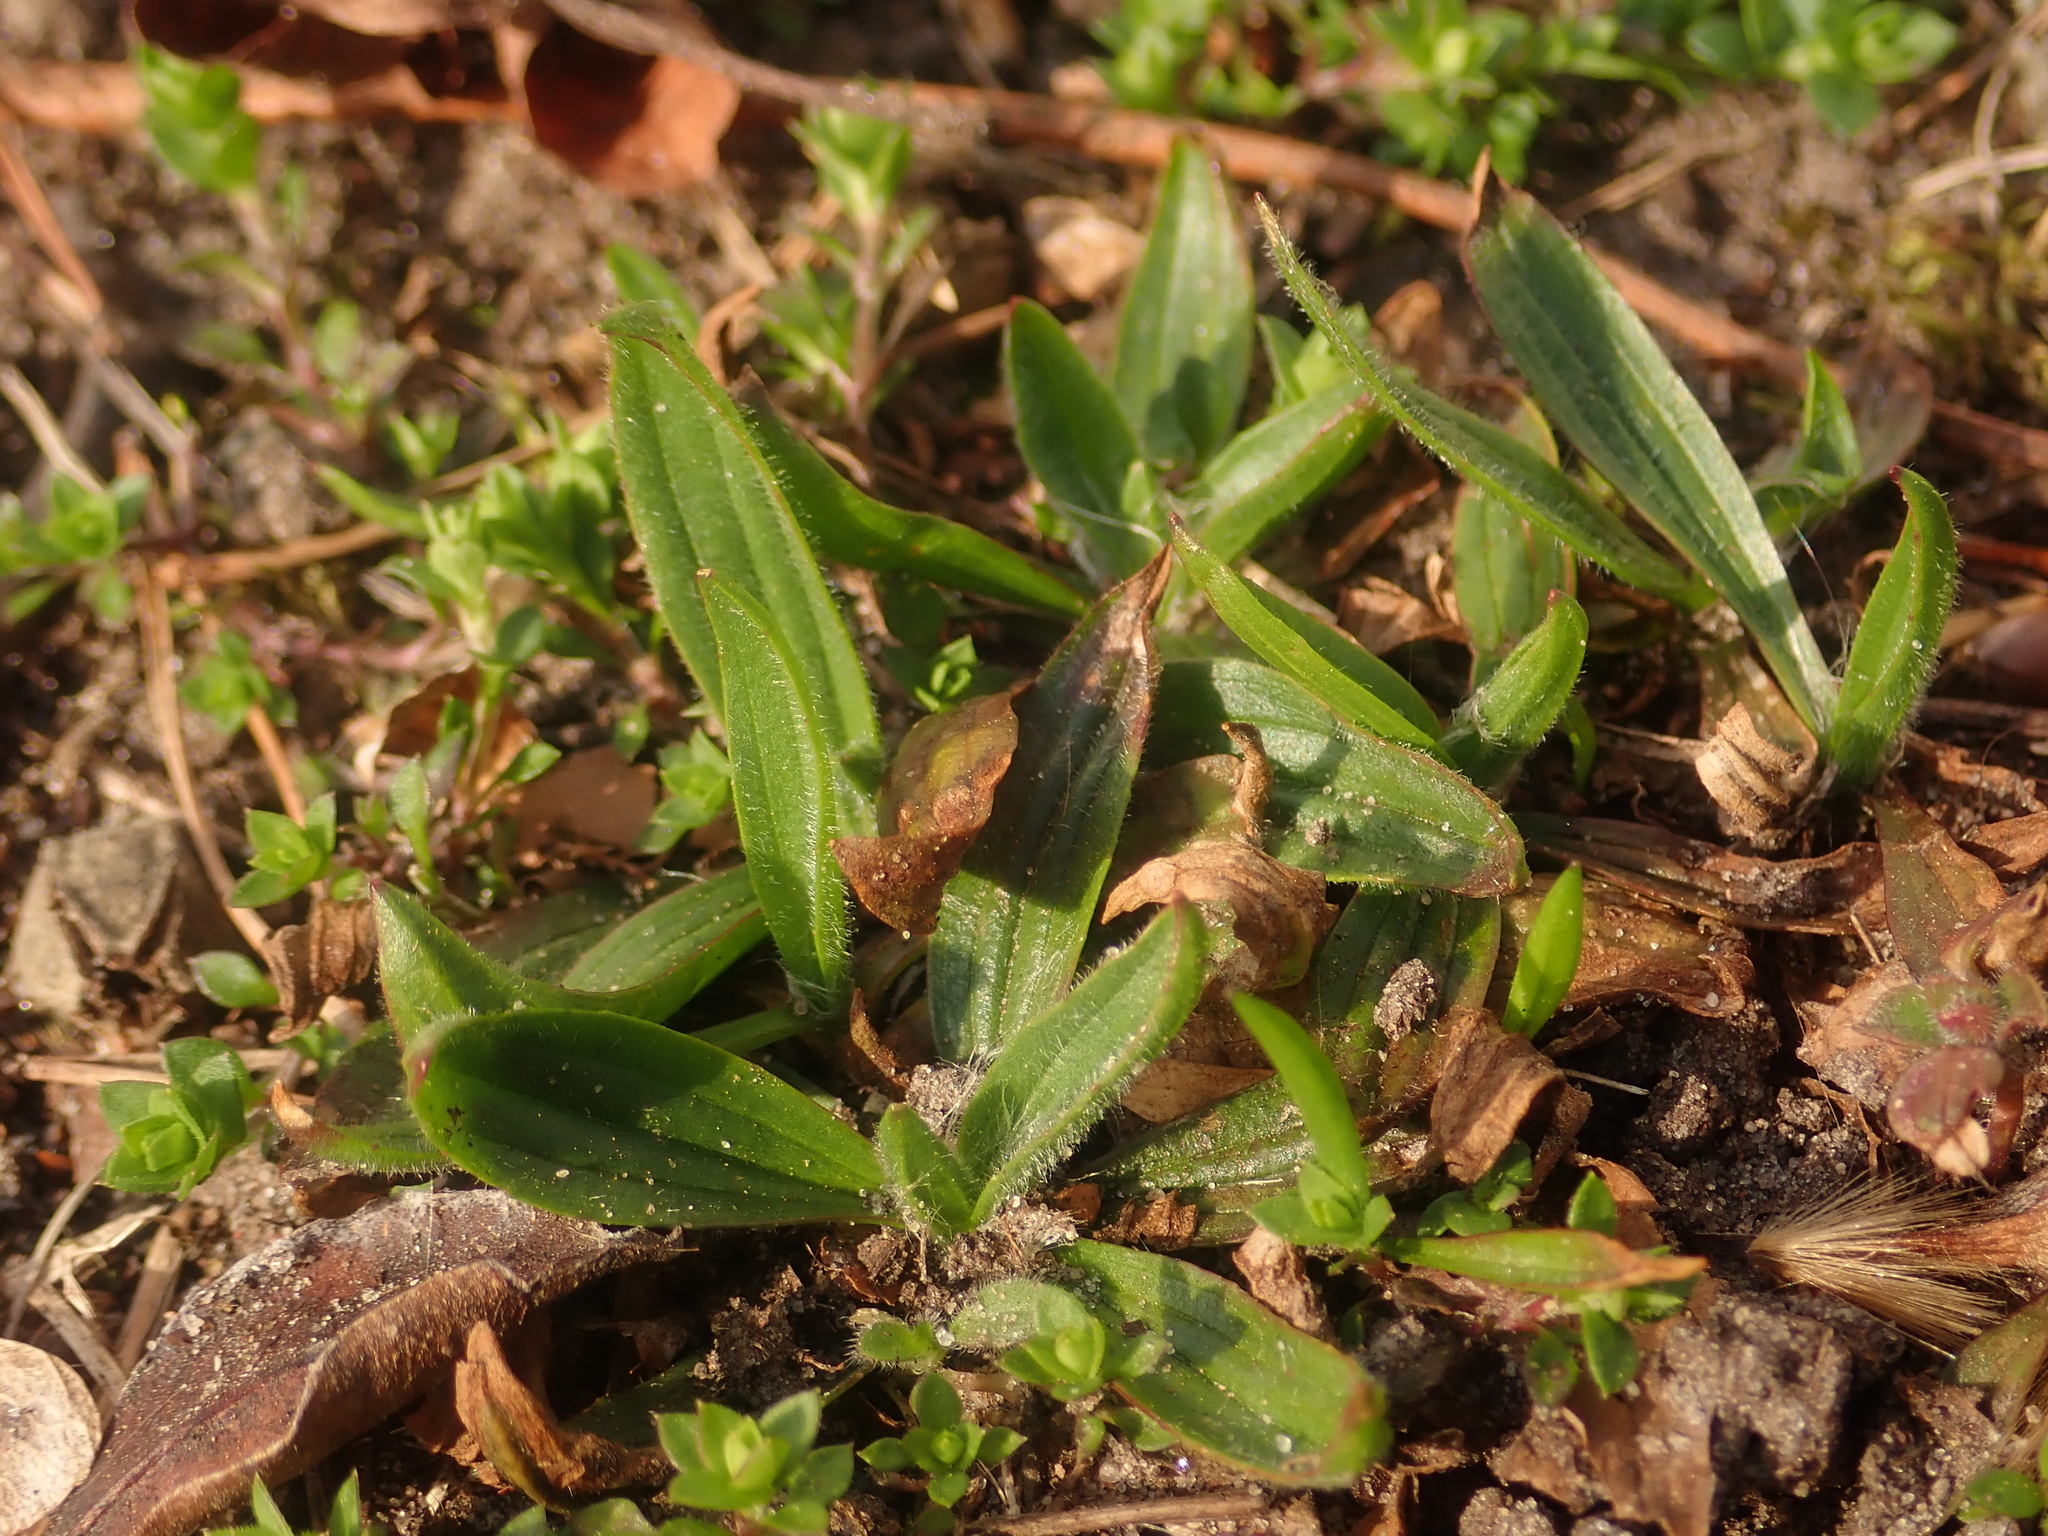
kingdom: Plantae
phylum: Tracheophyta
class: Magnoliopsida
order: Lamiales
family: Plantaginaceae
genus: Plantago
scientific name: Plantago lanceolata
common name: Ribwort plantain
